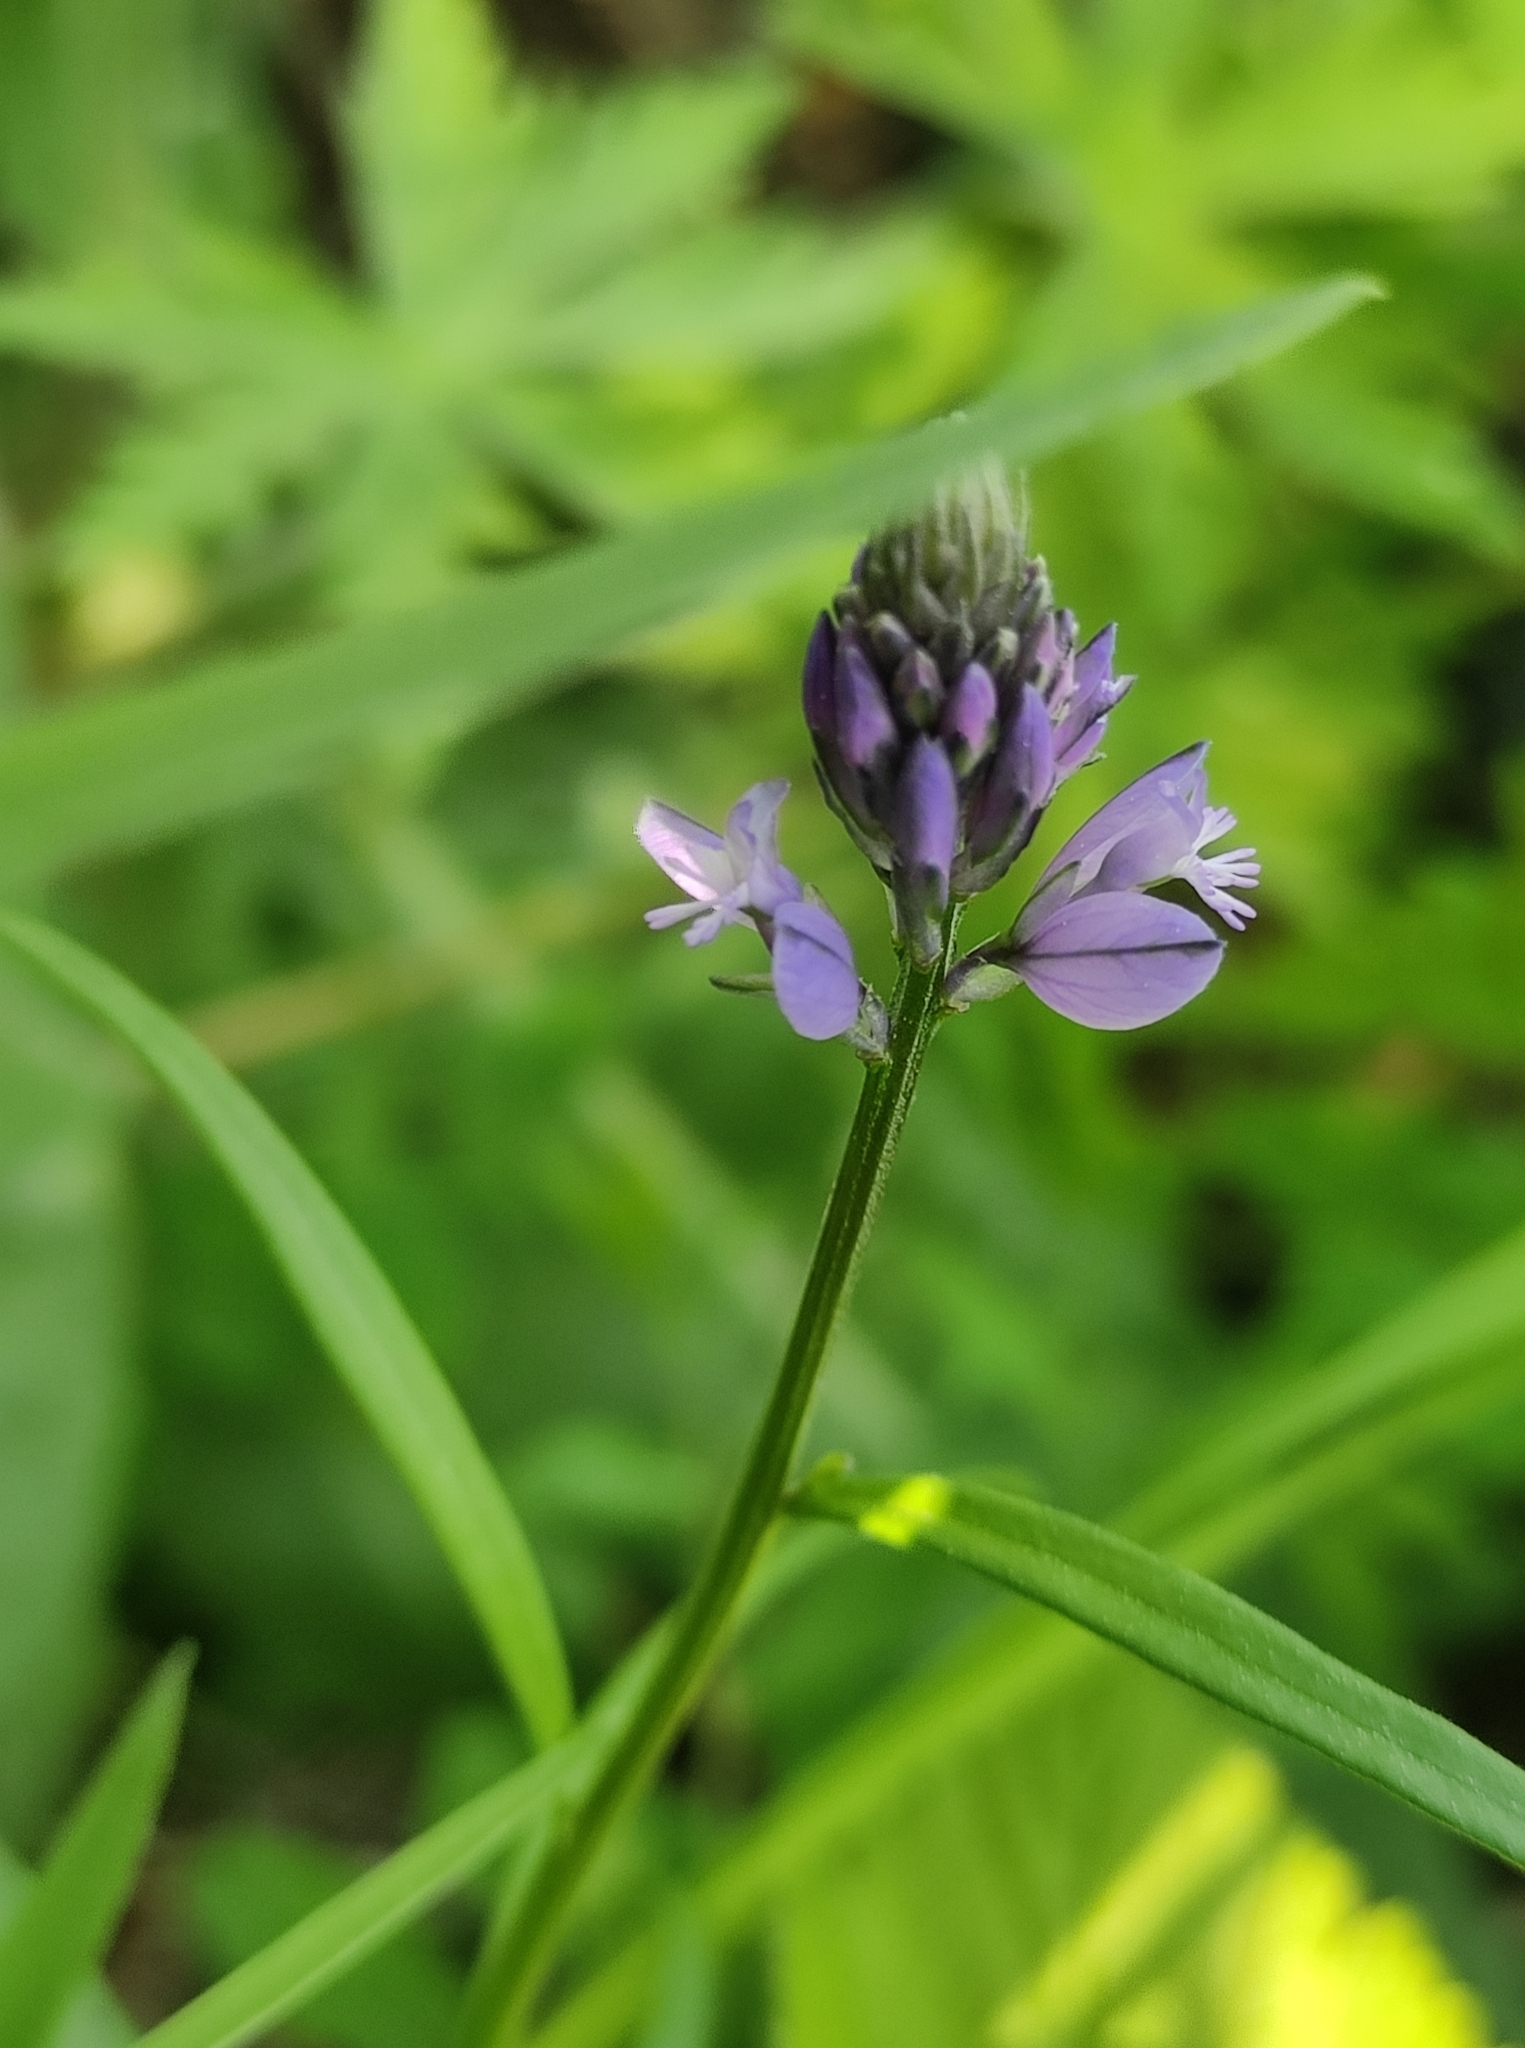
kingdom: Plantae
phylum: Tracheophyta
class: Magnoliopsida
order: Fabales
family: Polygalaceae
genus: Polygala
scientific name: Polygala comosa
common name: Tufted milkwort
